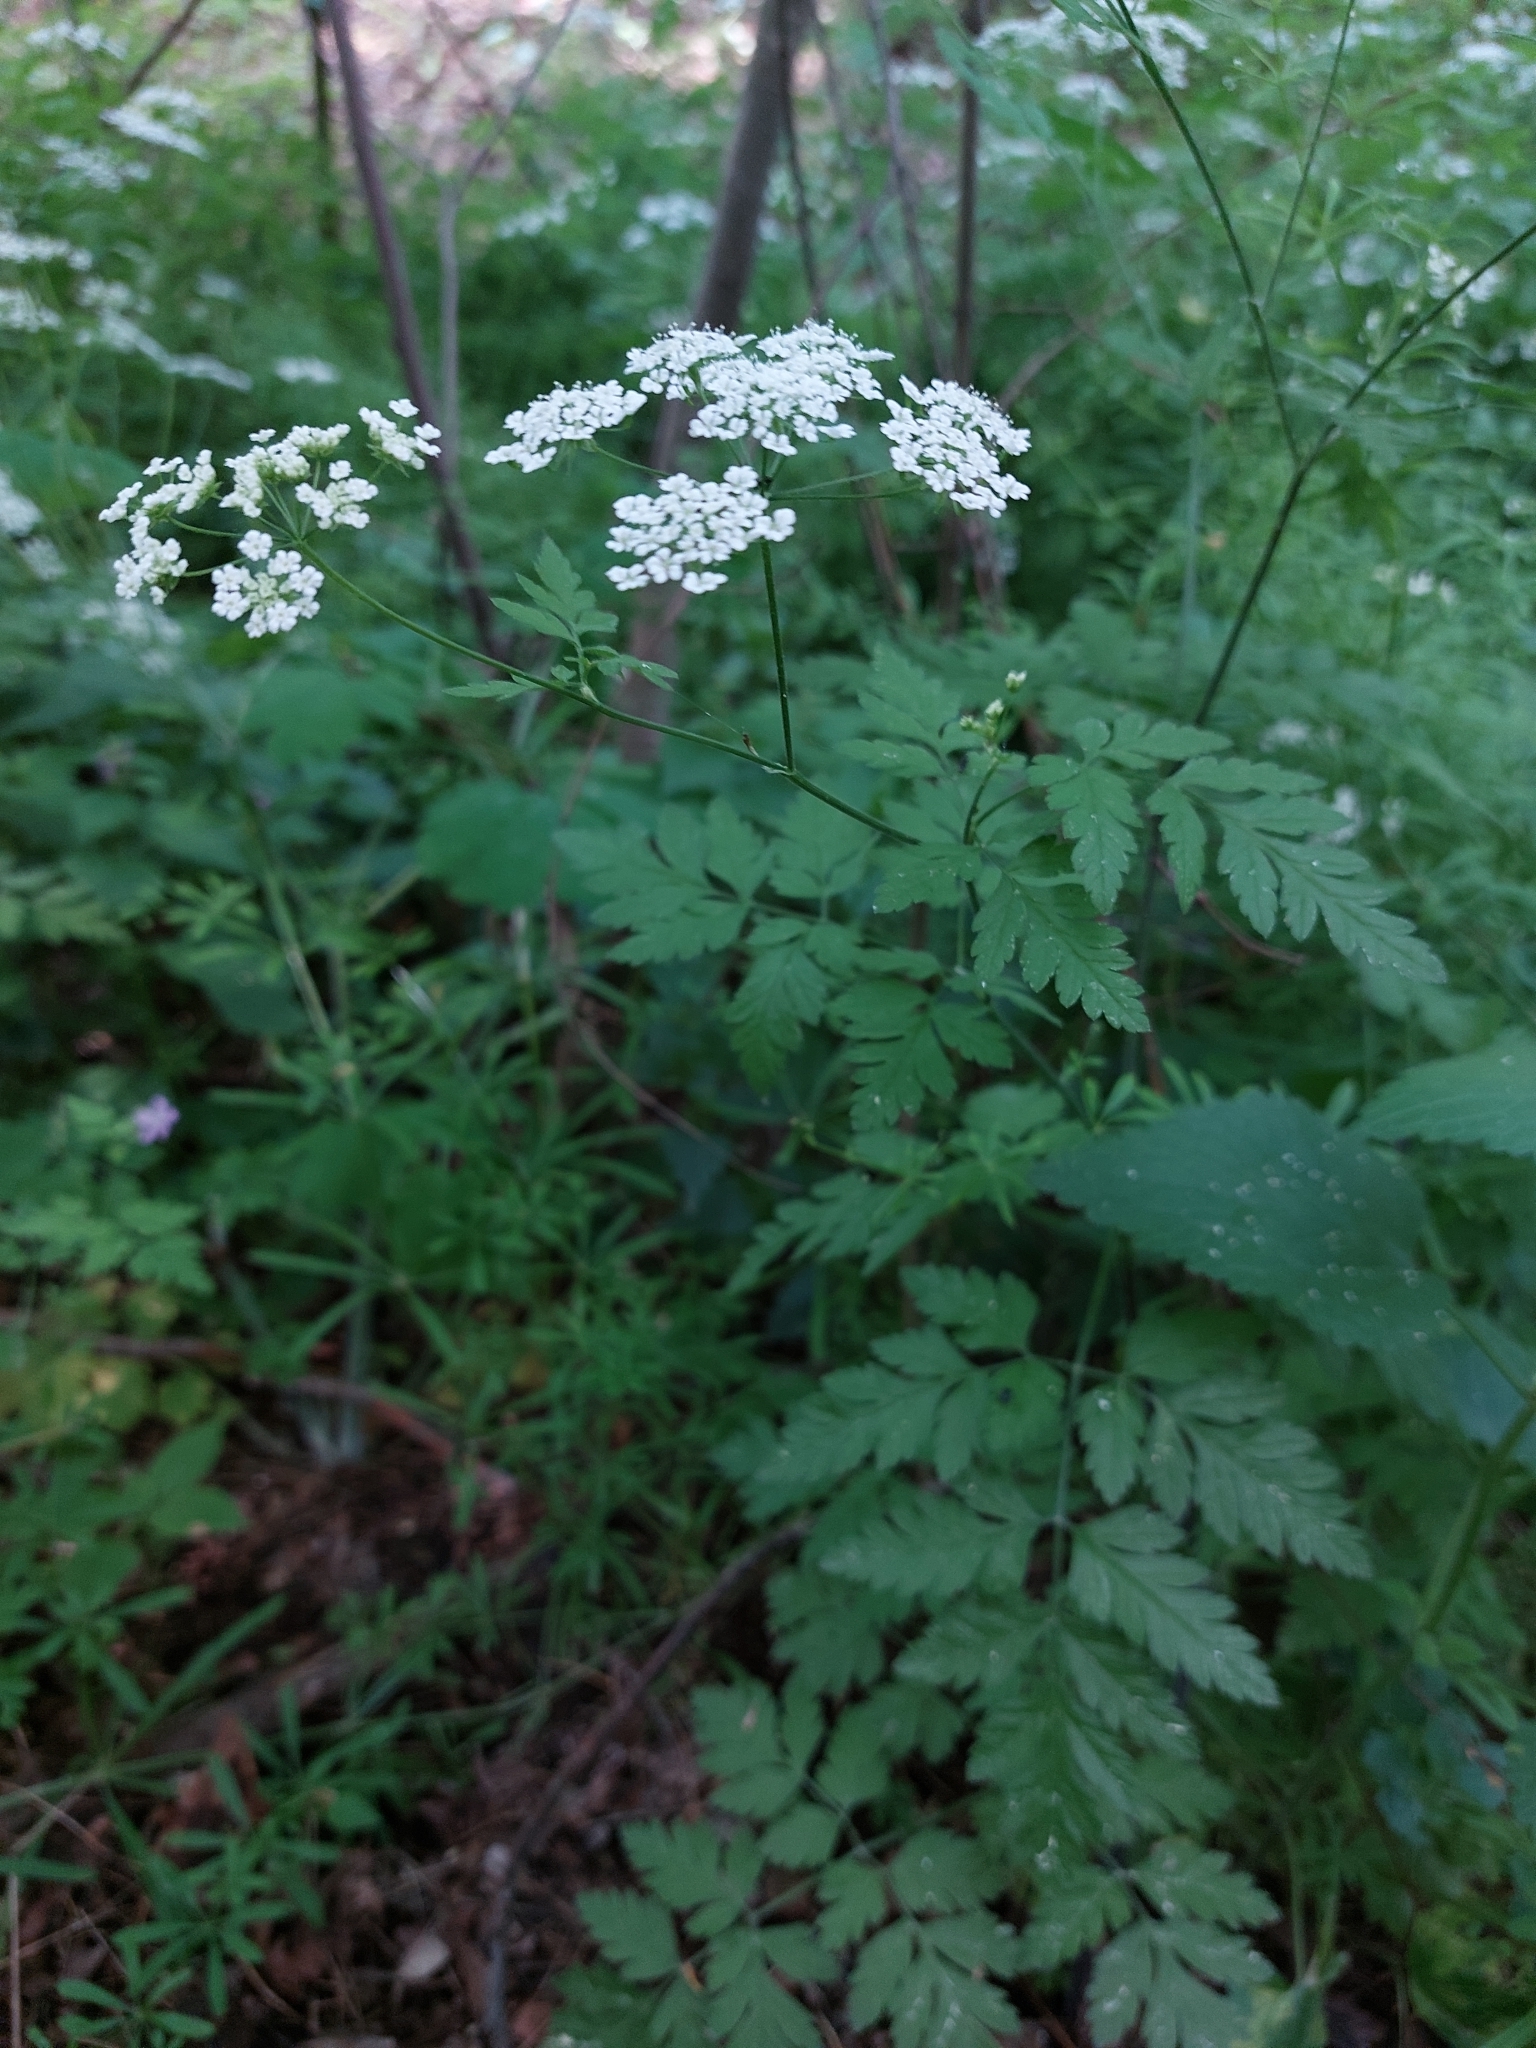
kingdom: Plantae
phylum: Tracheophyta
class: Magnoliopsida
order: Apiales
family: Apiaceae
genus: Chaerophyllum
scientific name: Chaerophyllum temulum
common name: Rough chervil
